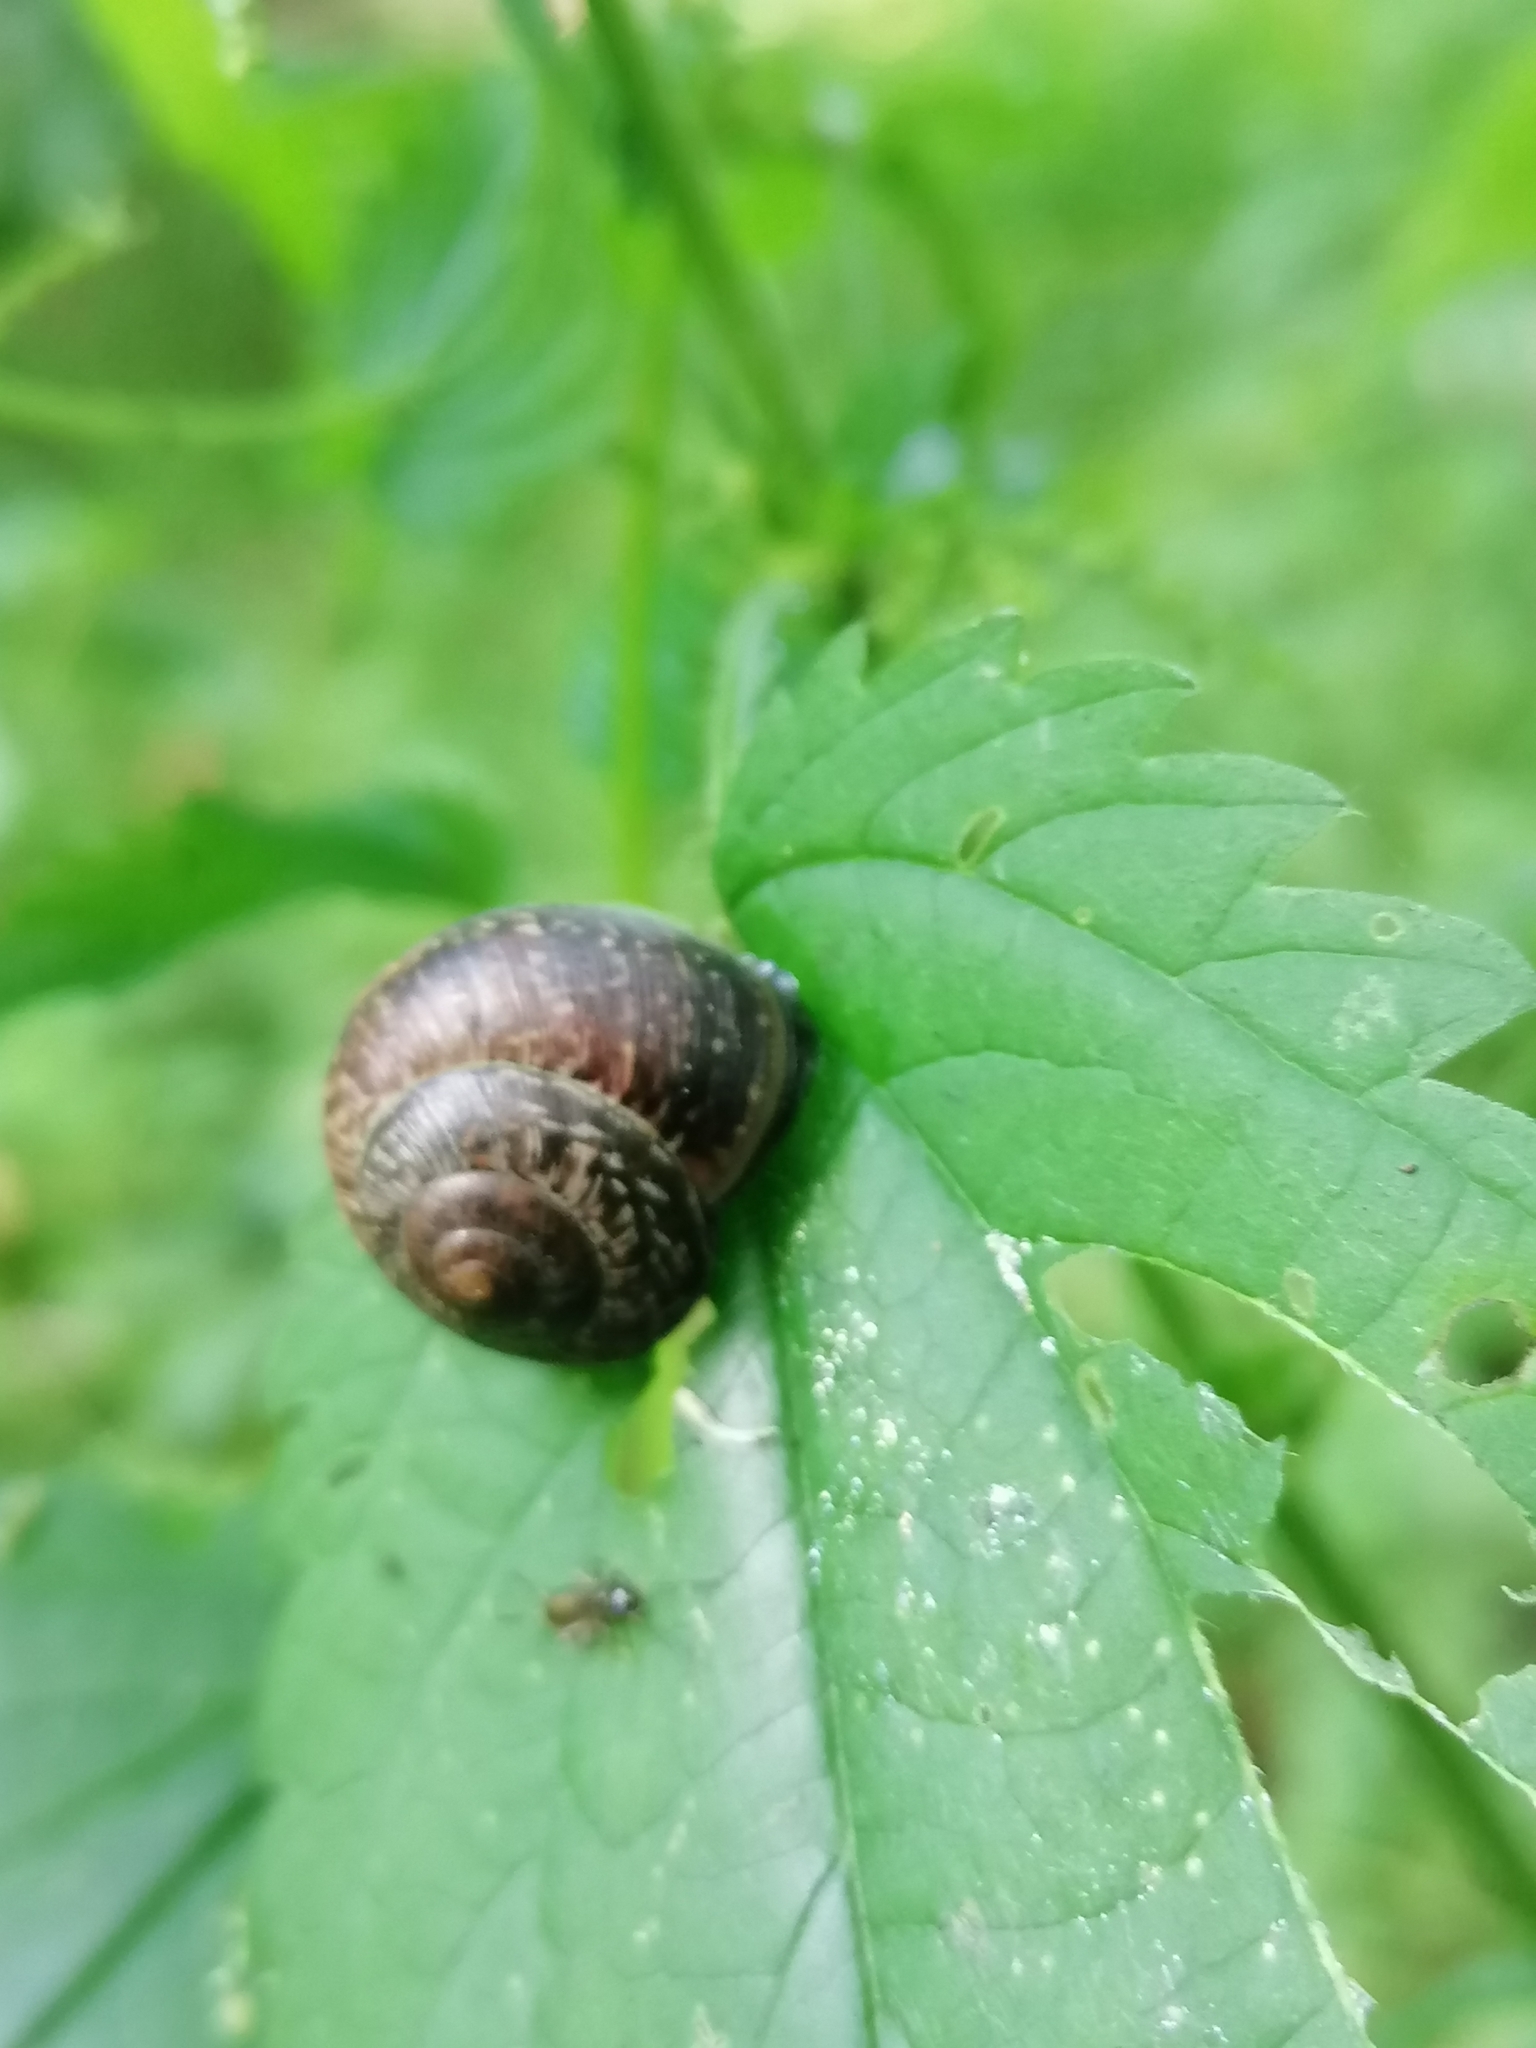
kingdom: Animalia
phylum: Mollusca
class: Gastropoda
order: Stylommatophora
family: Helicidae
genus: Arianta
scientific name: Arianta arbustorum
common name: Copse snail
